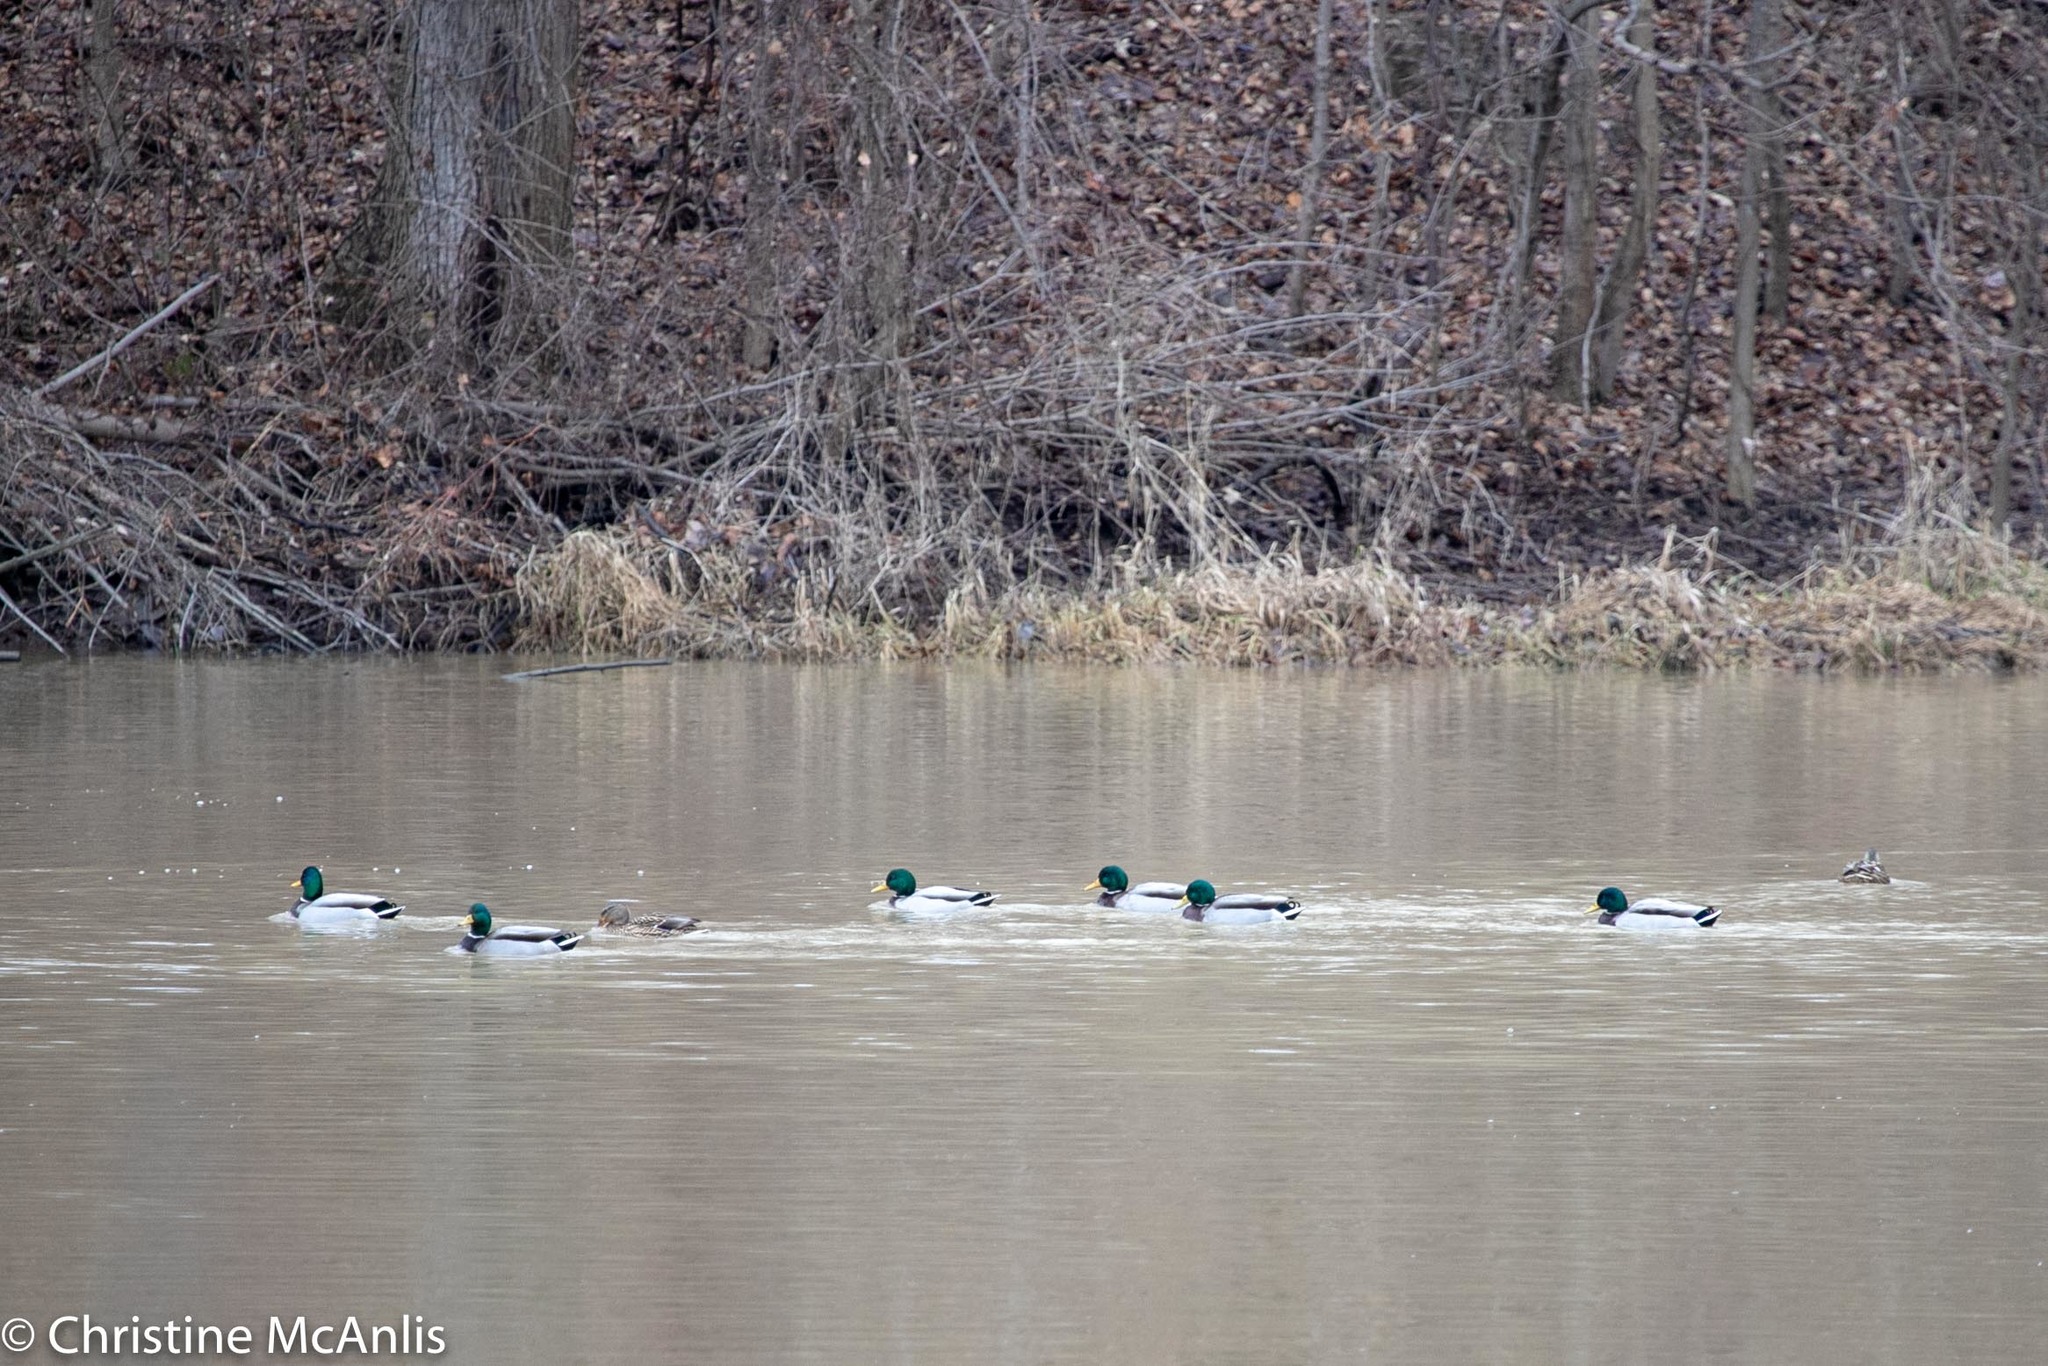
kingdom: Animalia
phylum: Chordata
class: Aves
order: Anseriformes
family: Anatidae
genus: Anas
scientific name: Anas platyrhynchos
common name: Mallard
